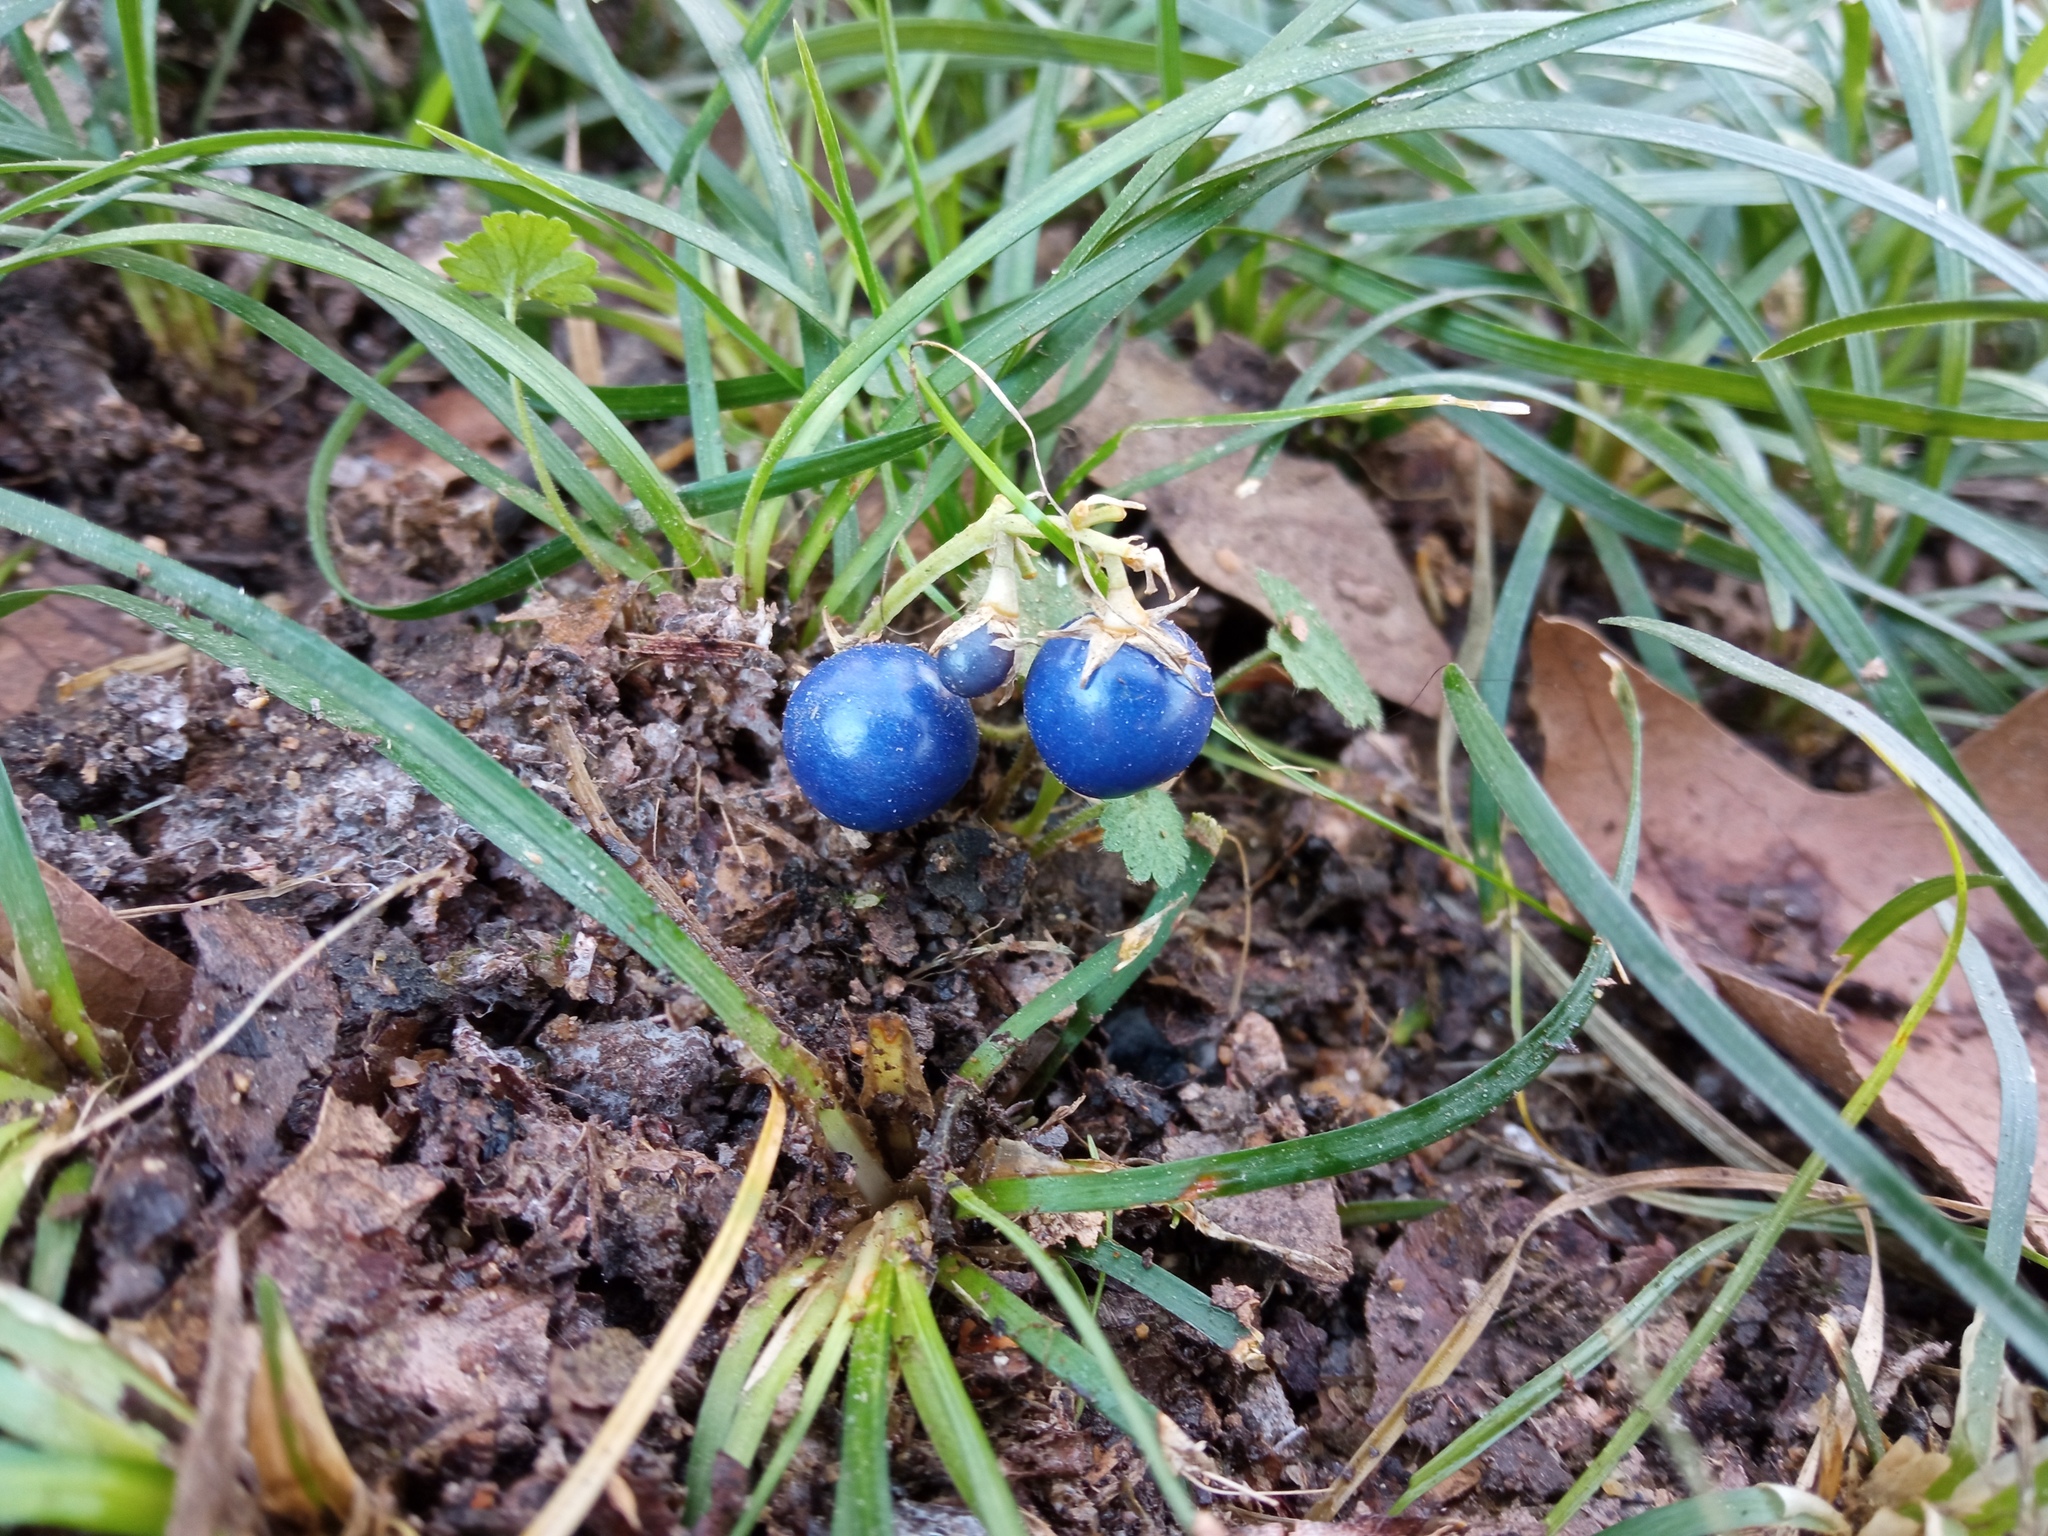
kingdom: Plantae
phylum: Tracheophyta
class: Liliopsida
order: Asparagales
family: Asparagaceae
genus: Ophiopogon
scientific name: Ophiopogon japonicus
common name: Dwarf lilyturf
